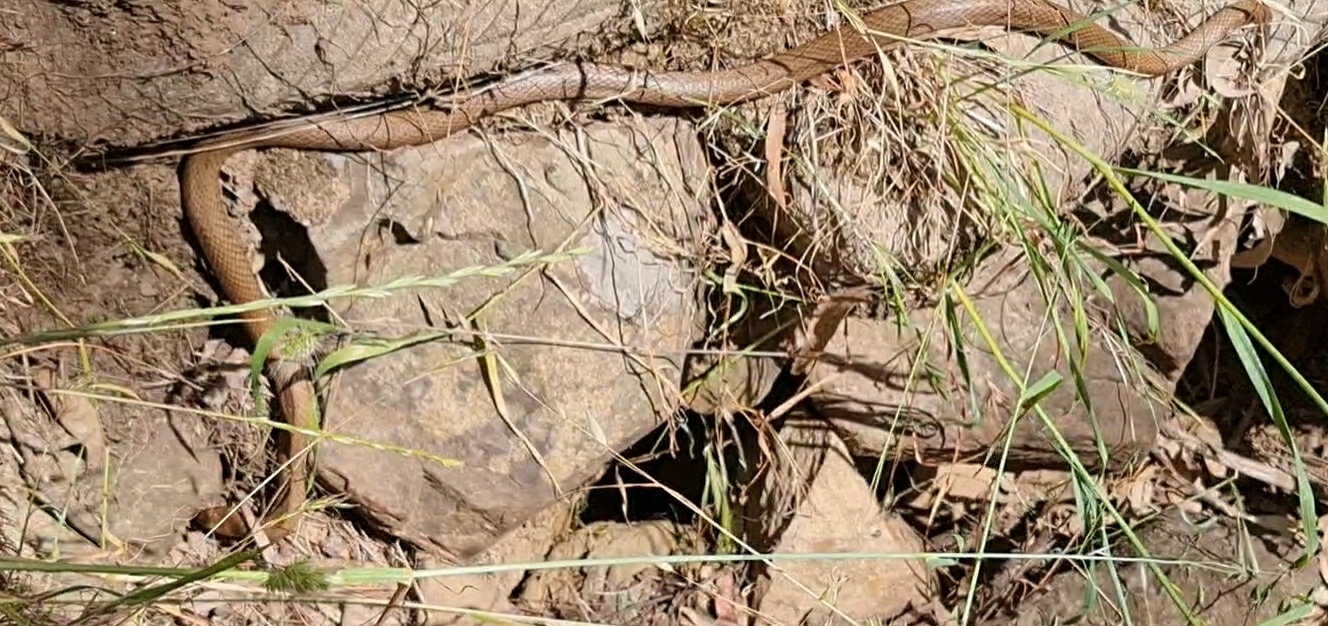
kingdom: Animalia
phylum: Chordata
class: Squamata
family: Elapidae
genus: Pseudonaja
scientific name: Pseudonaja textilis
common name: Eastern brown snake
